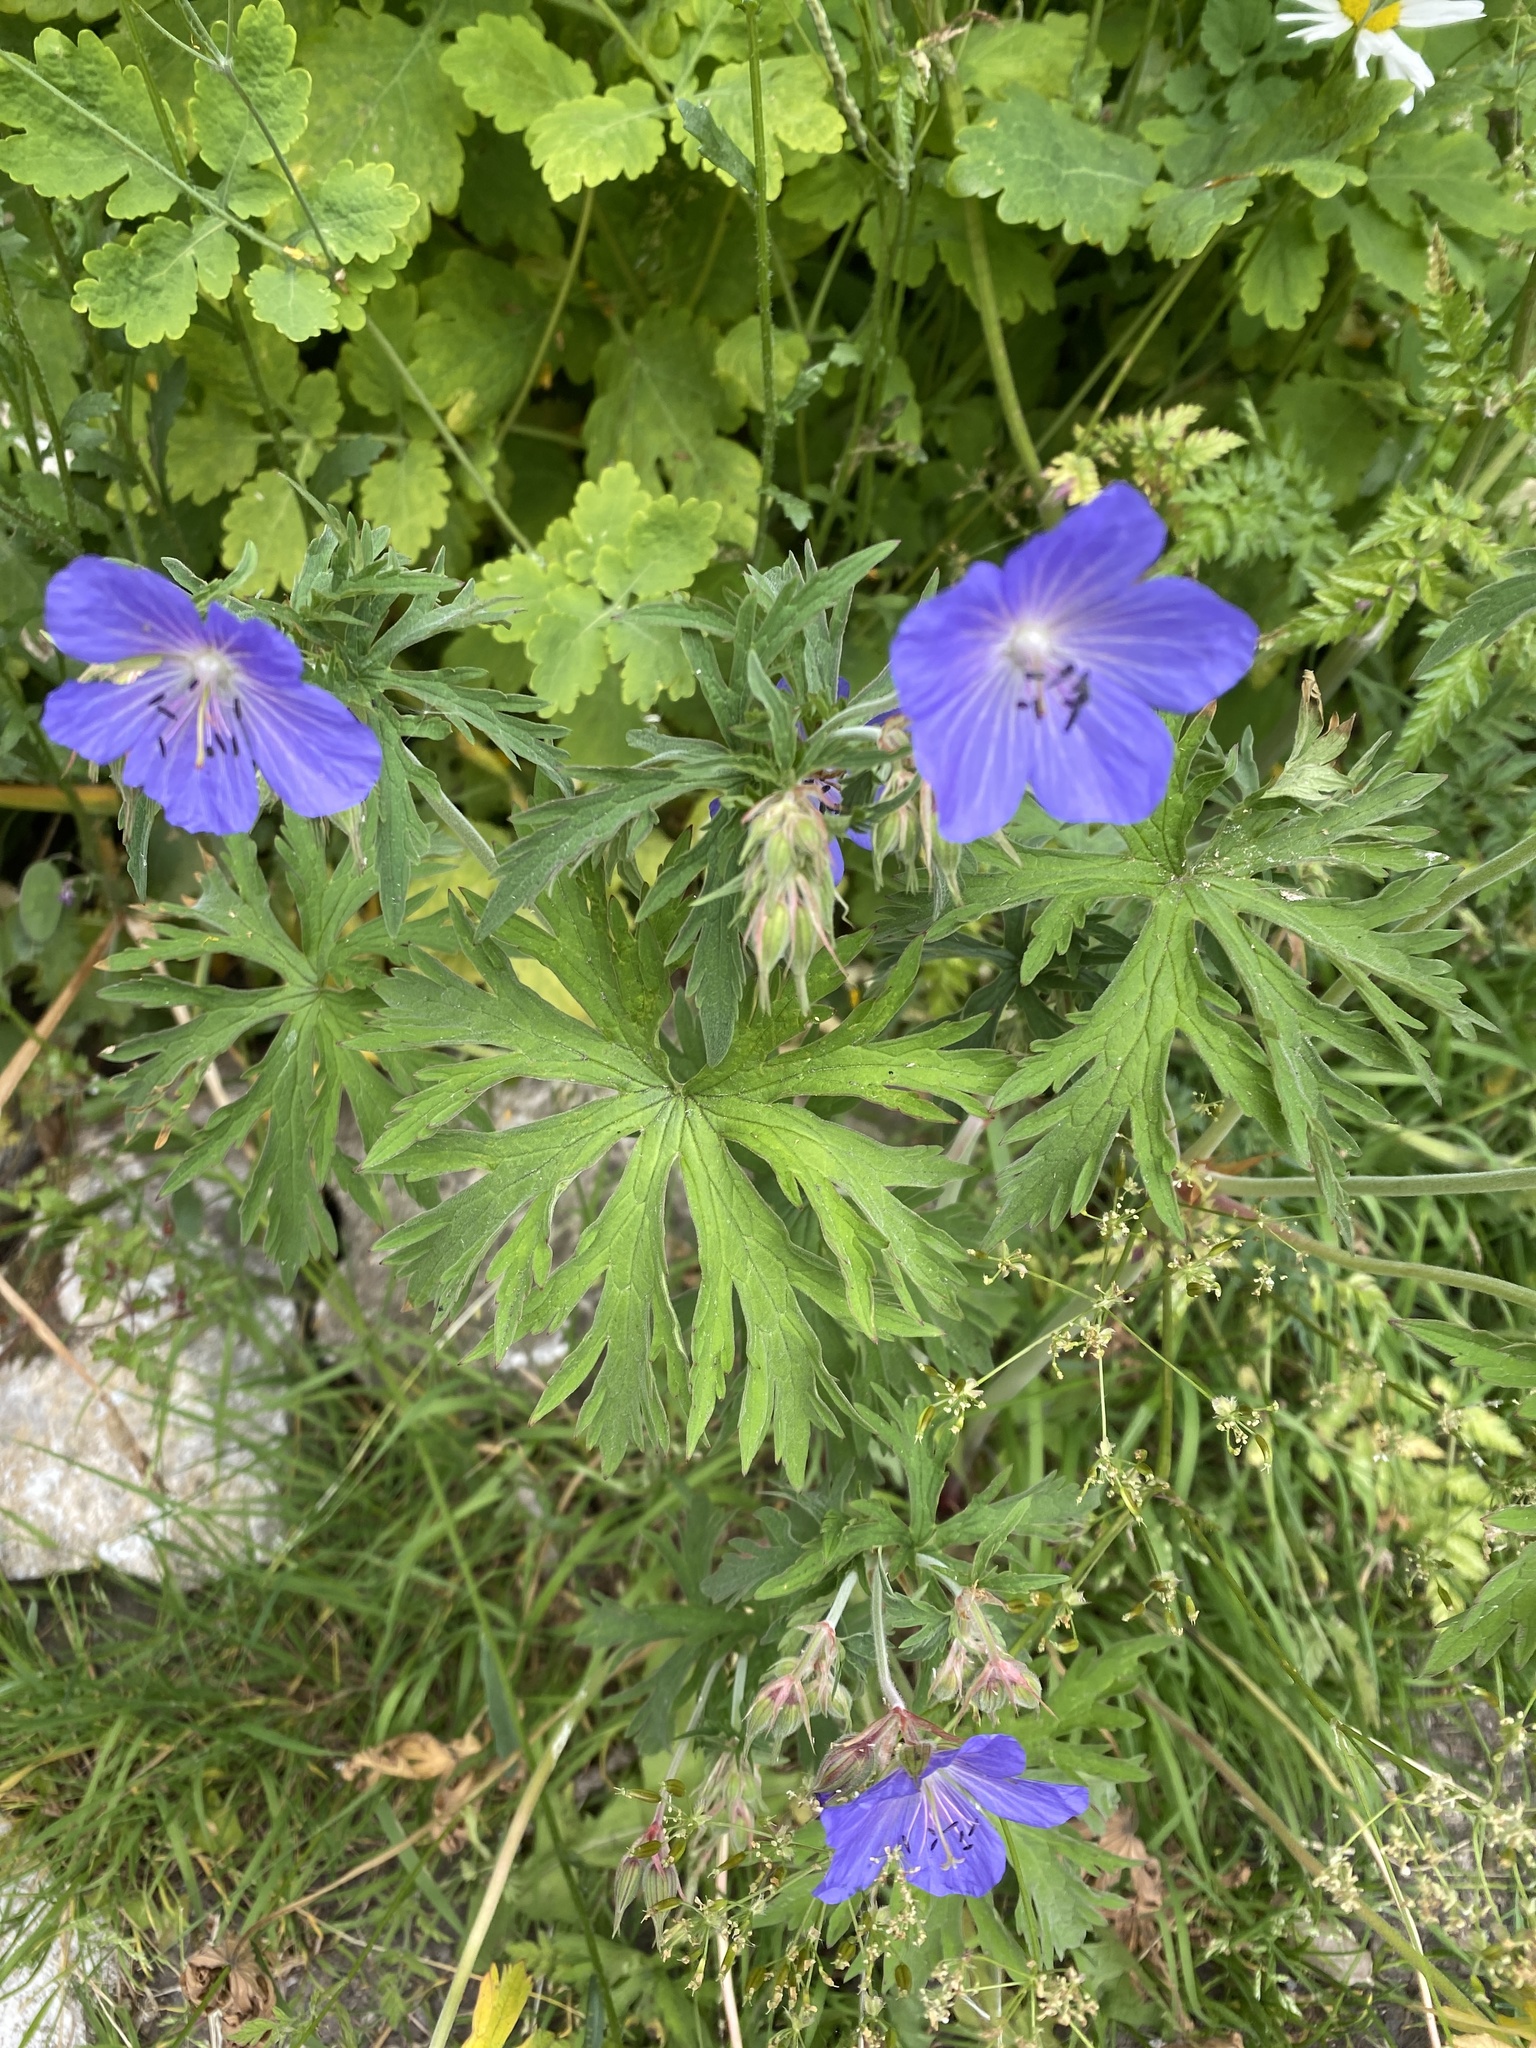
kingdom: Plantae
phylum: Tracheophyta
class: Magnoliopsida
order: Geraniales
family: Geraniaceae
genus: Geranium
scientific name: Geranium pratense
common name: Meadow crane's-bill
